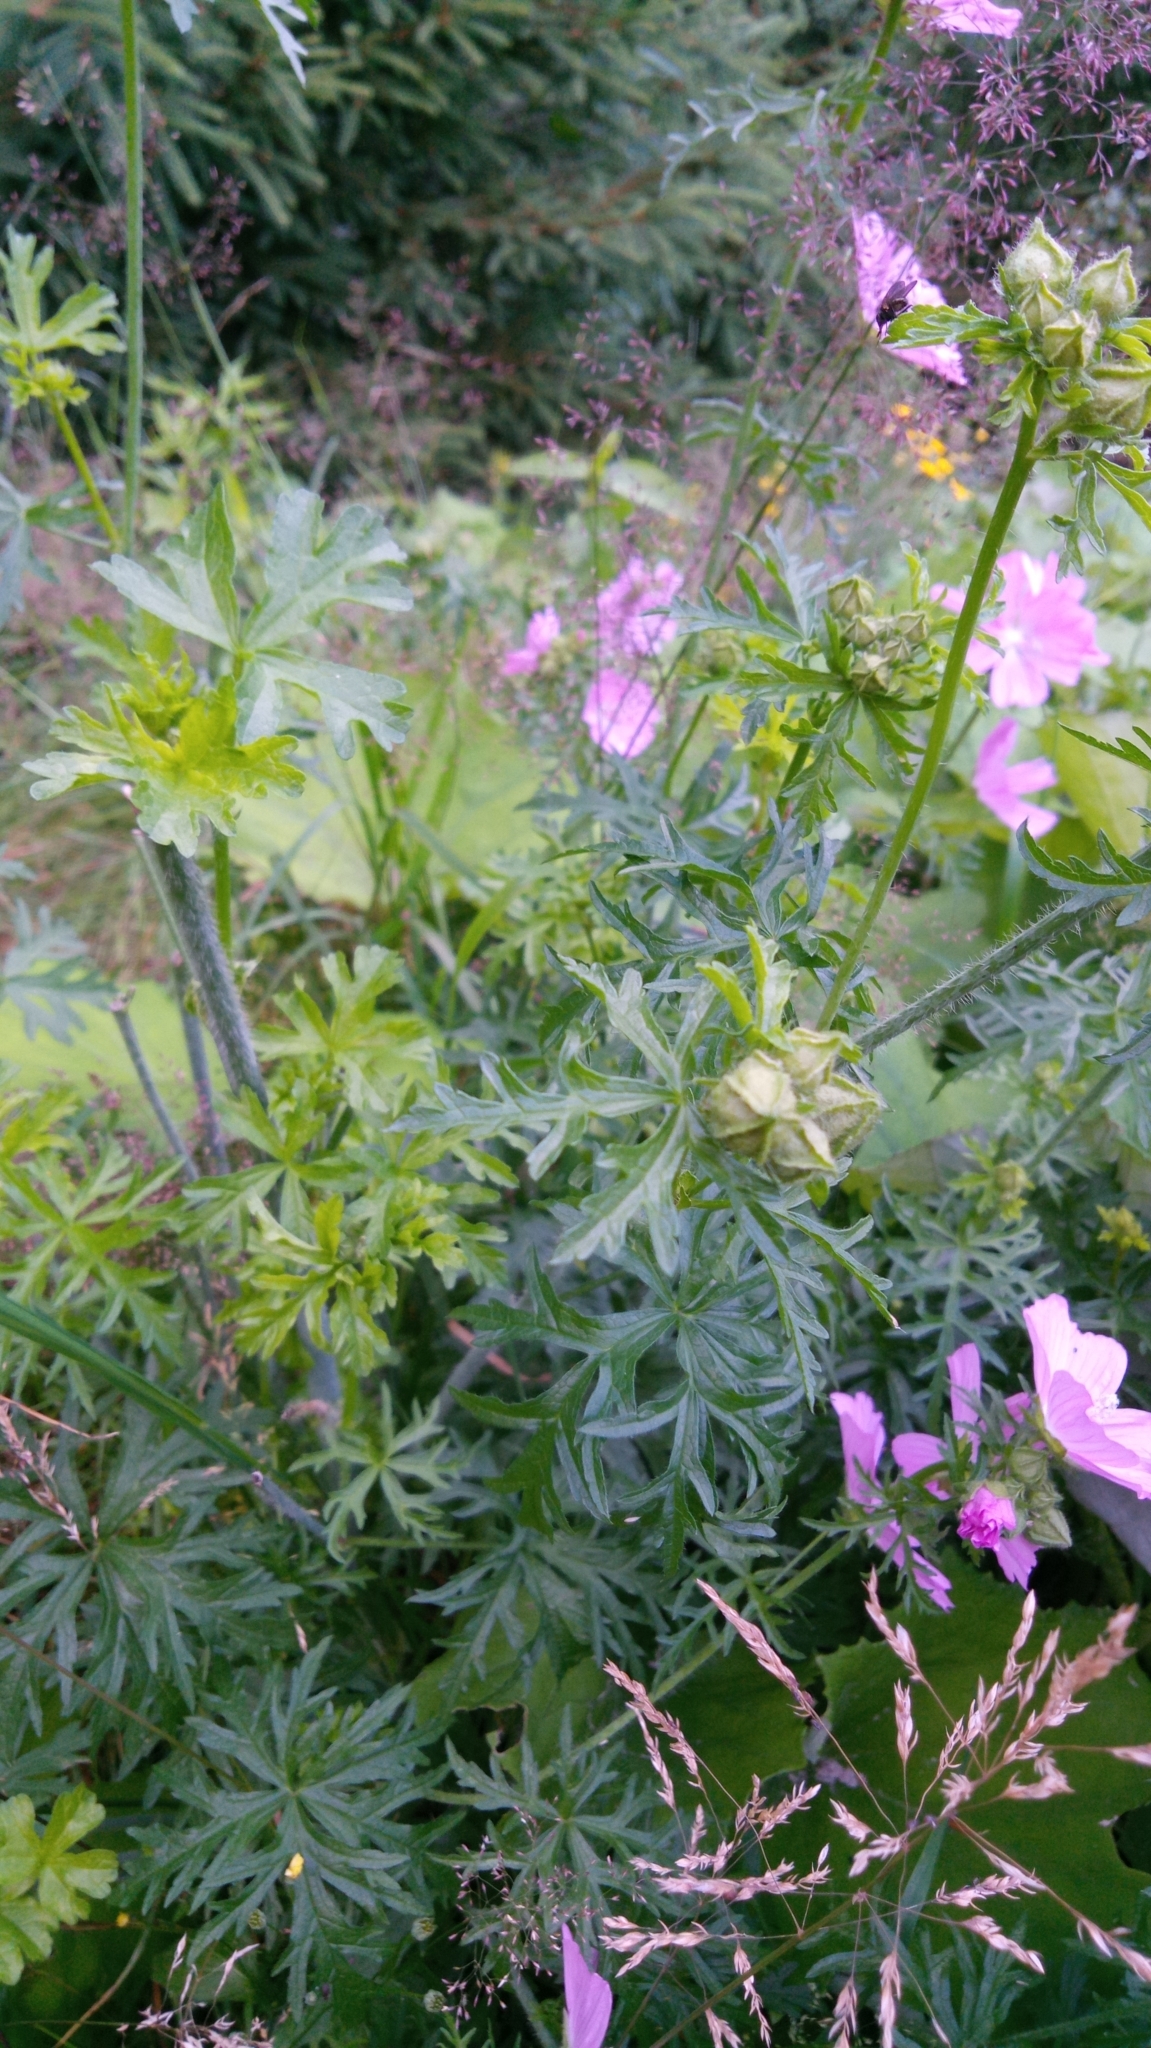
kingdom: Plantae
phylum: Tracheophyta
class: Magnoliopsida
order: Malvales
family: Malvaceae
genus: Malva
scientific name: Malva moschata
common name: Musk mallow
